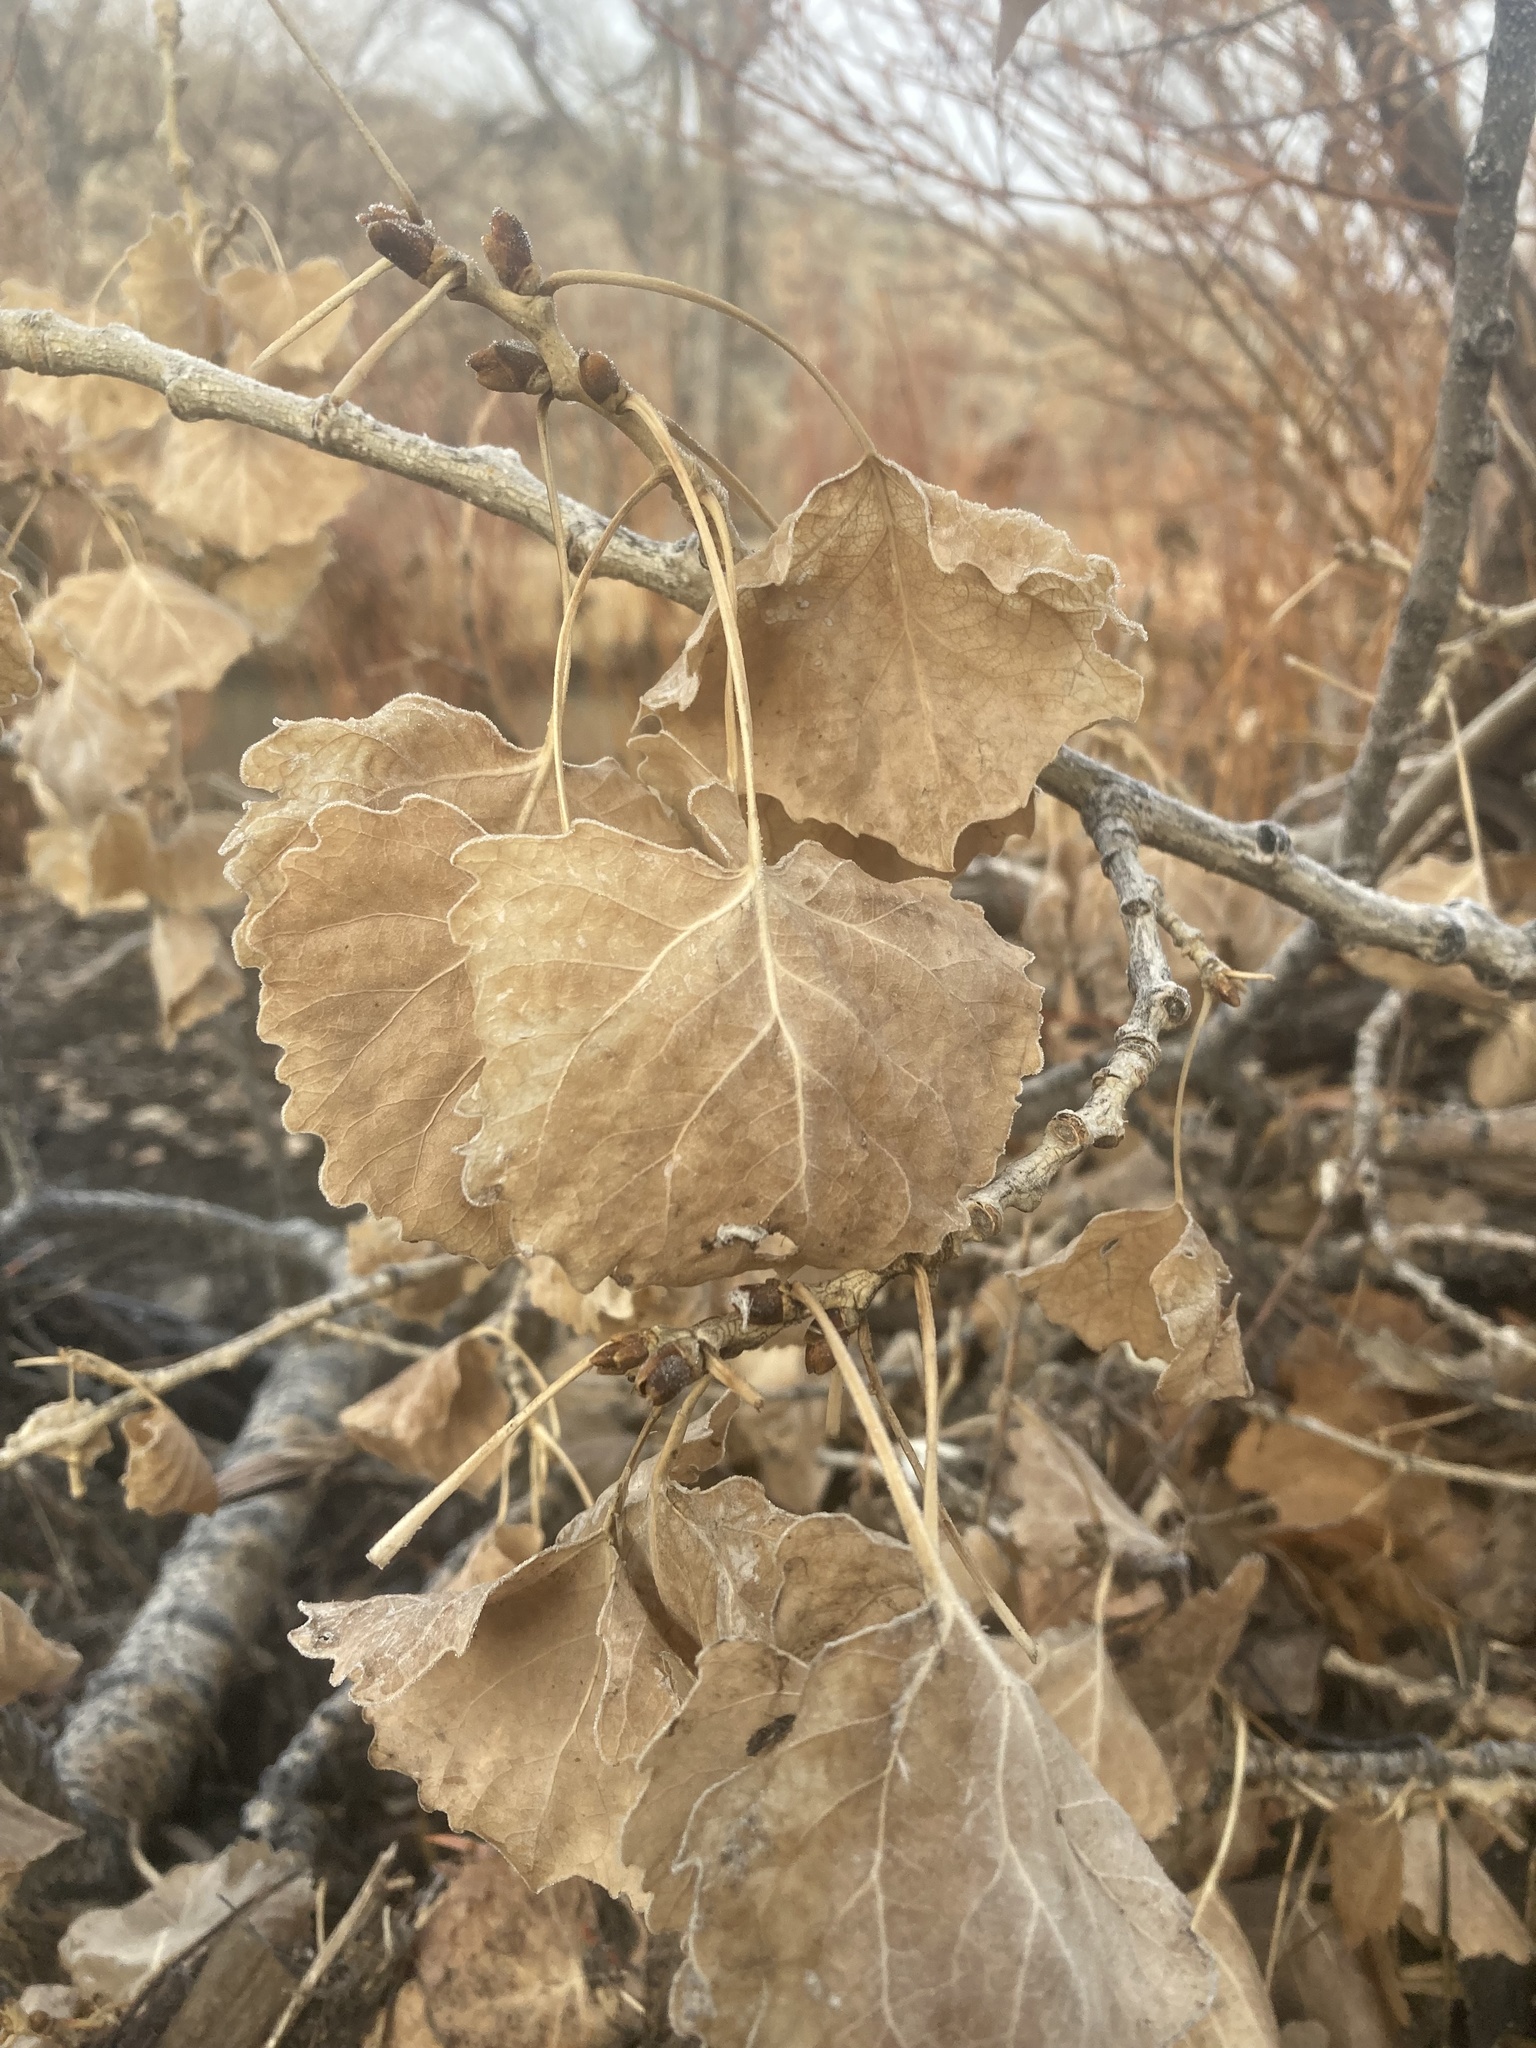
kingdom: Plantae
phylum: Tracheophyta
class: Magnoliopsida
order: Malpighiales
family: Salicaceae
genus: Populus
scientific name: Populus fremontii
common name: Fremont's cottonwood
